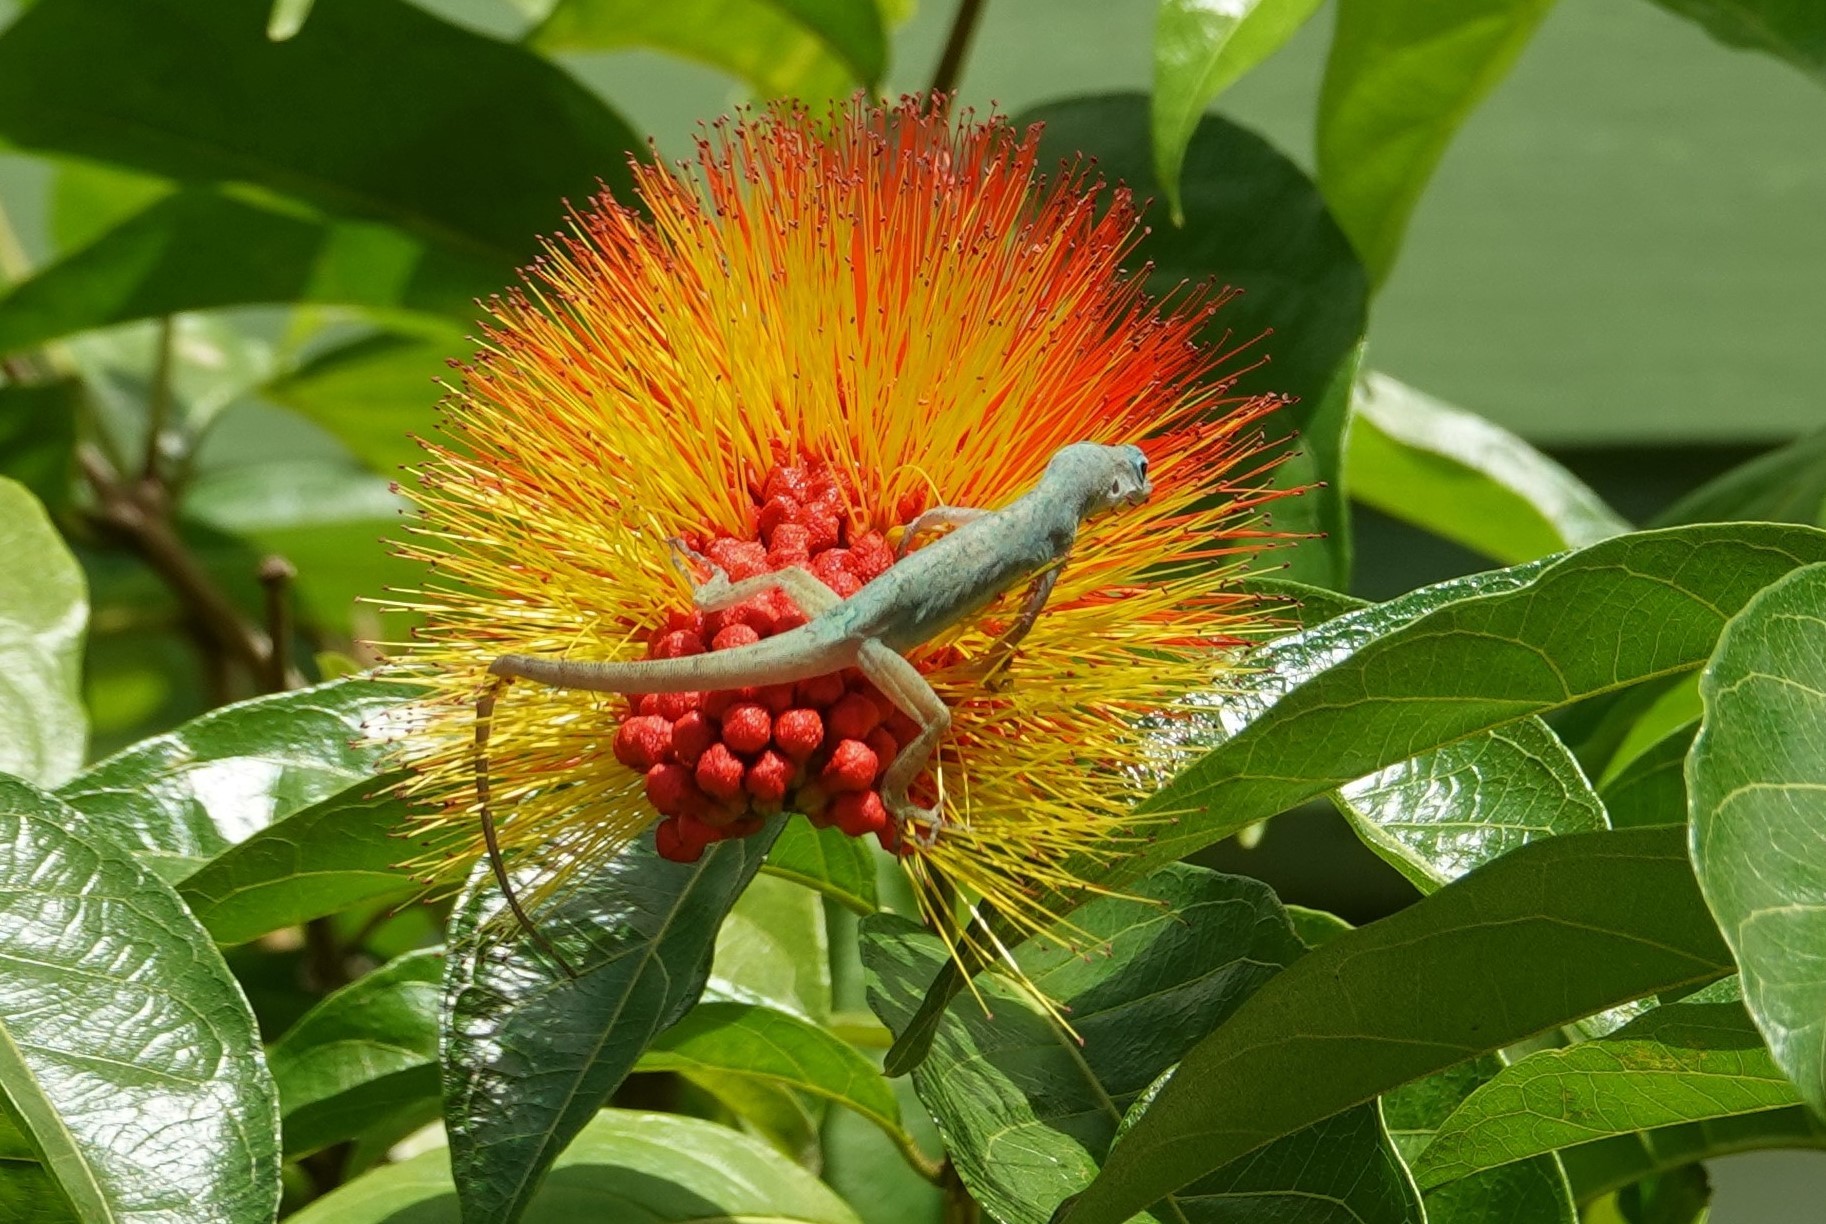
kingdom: Animalia
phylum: Chordata
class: Squamata
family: Dactyloidae
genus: Anolis
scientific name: Anolis aeneus
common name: Bronze anole
